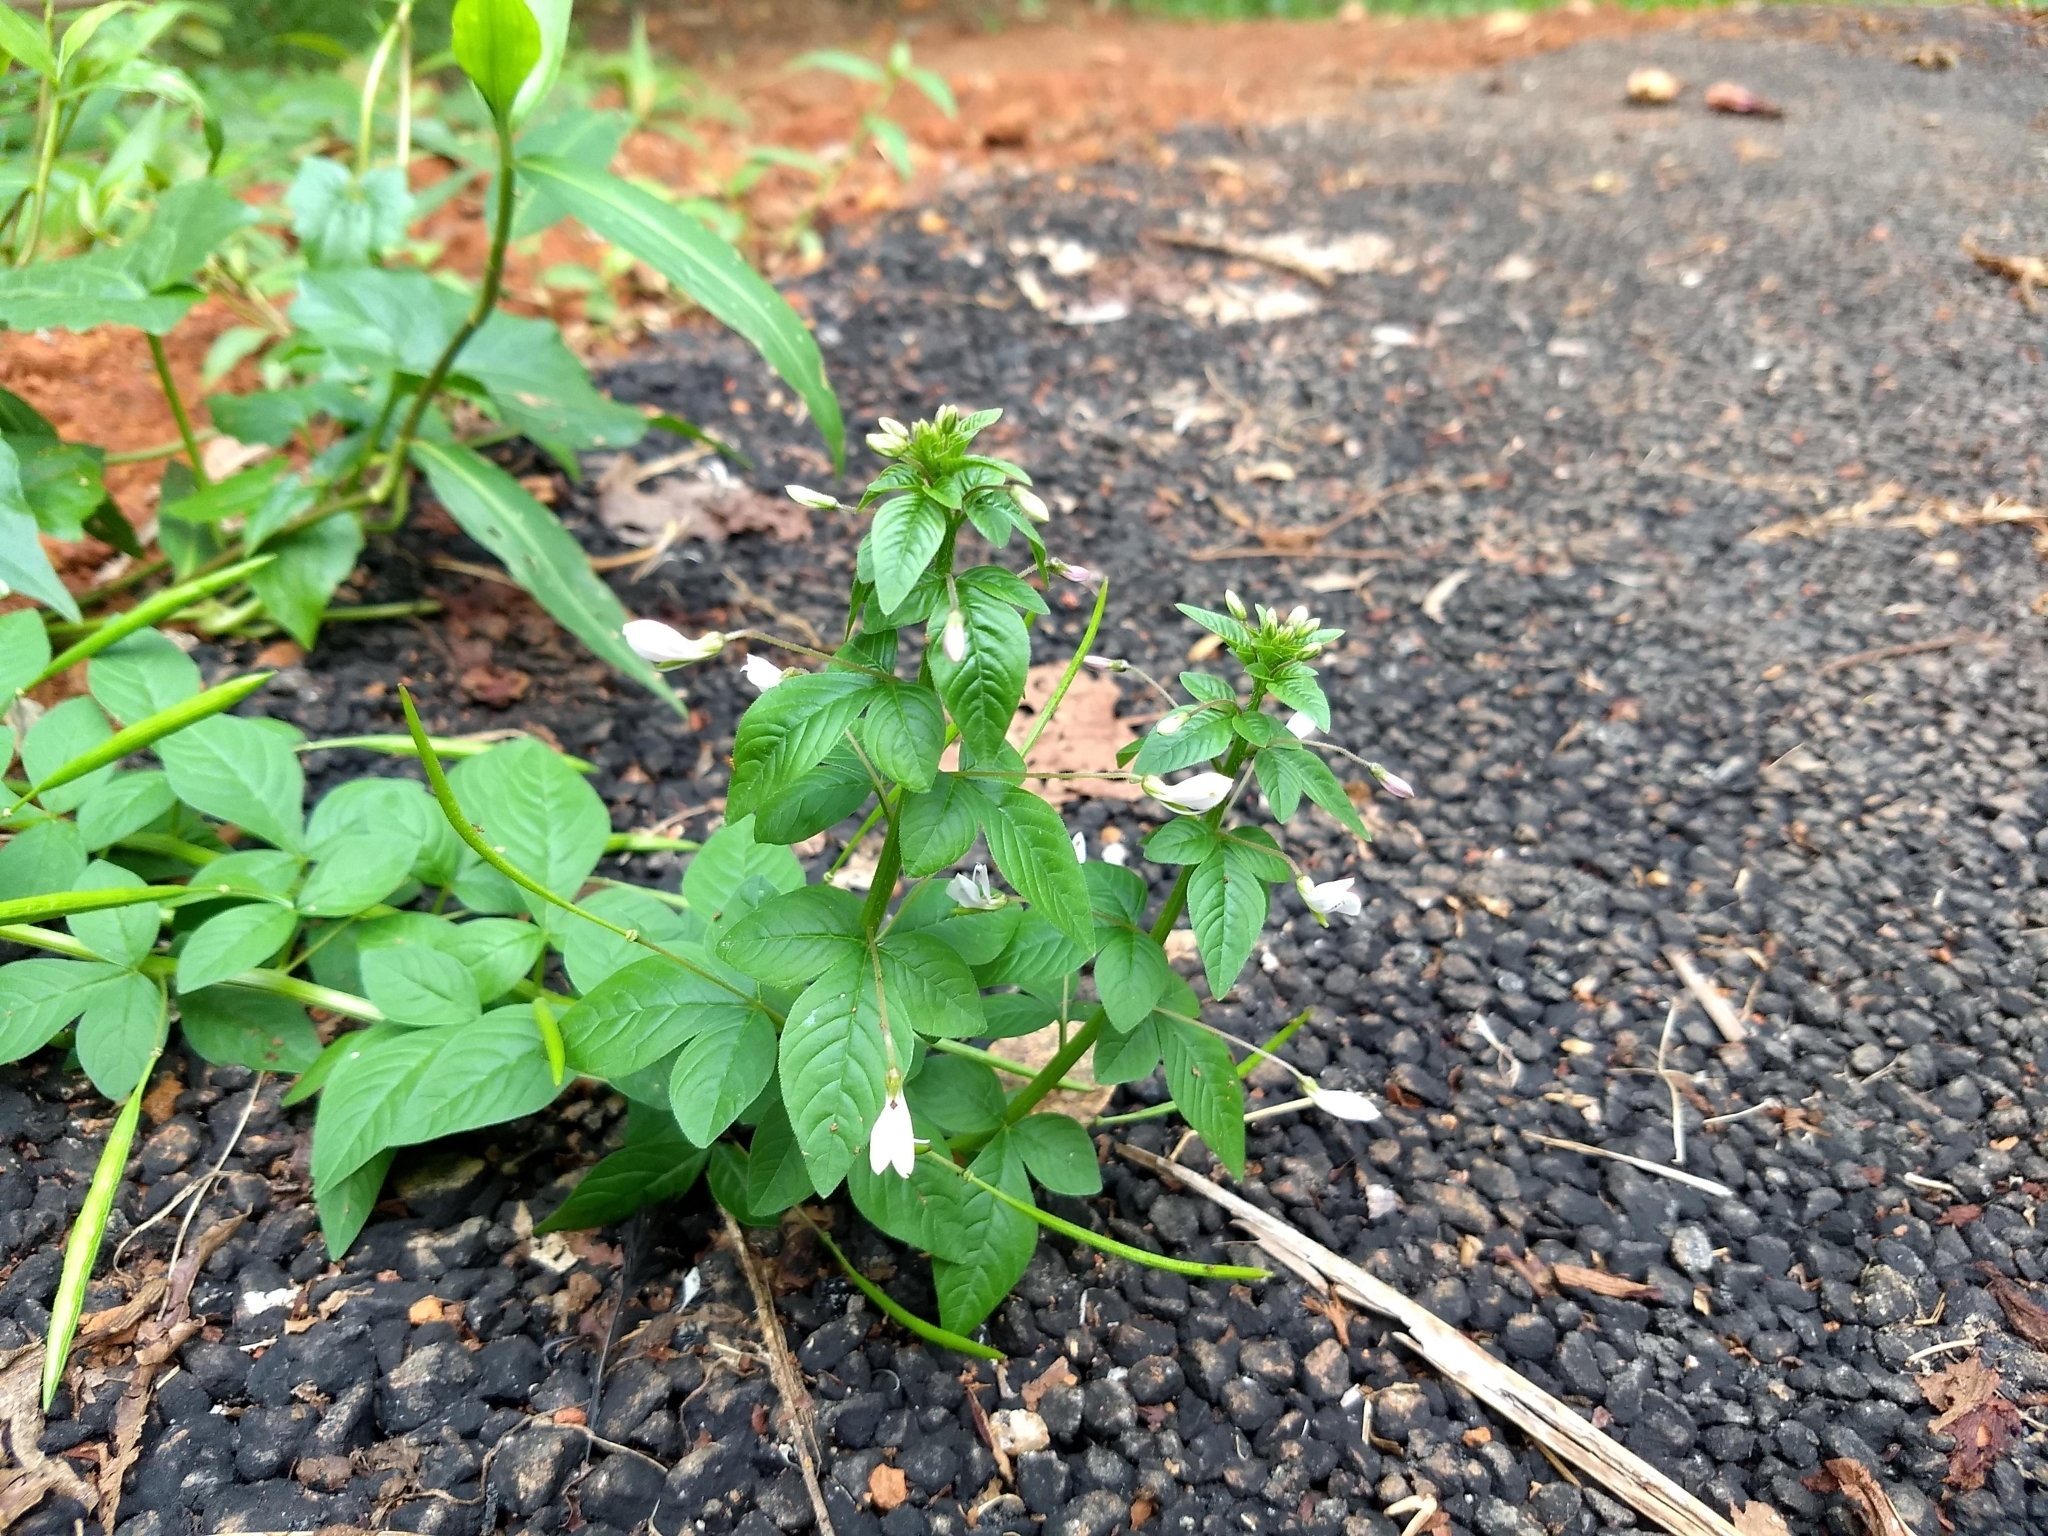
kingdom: Plantae
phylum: Tracheophyta
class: Magnoliopsida
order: Brassicales
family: Cleomaceae
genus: Sieruela
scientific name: Sieruela rutidosperma
